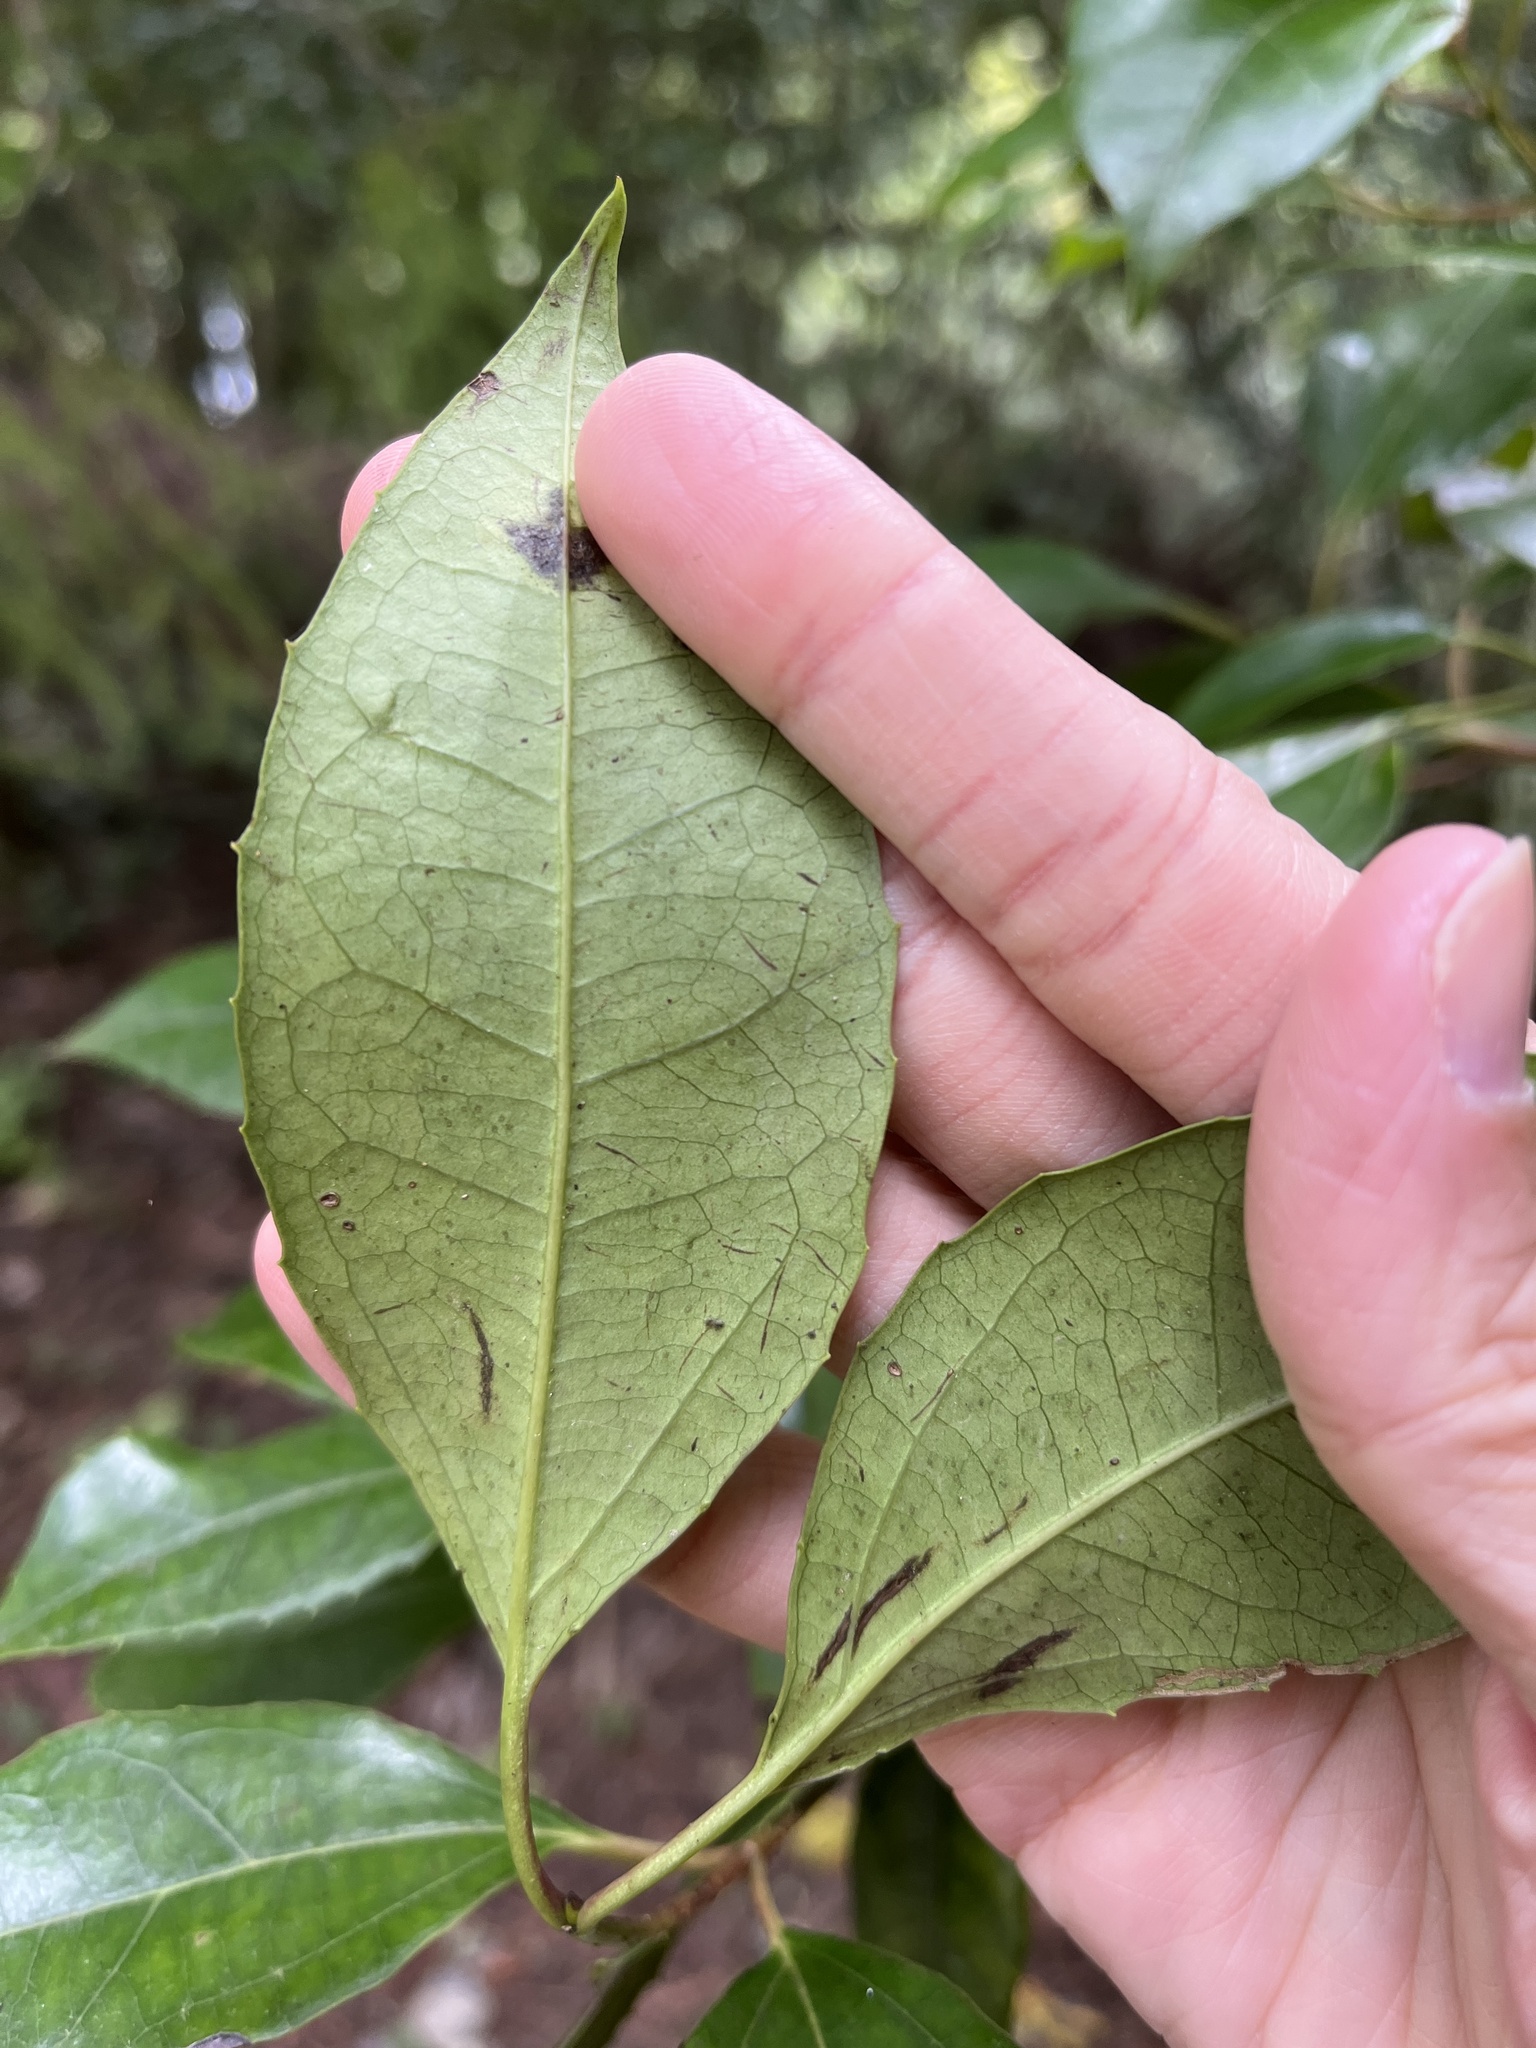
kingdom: Plantae
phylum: Tracheophyta
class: Magnoliopsida
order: Dipsacales
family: Viburnaceae
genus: Viburnum
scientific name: Viburnum propinquum
